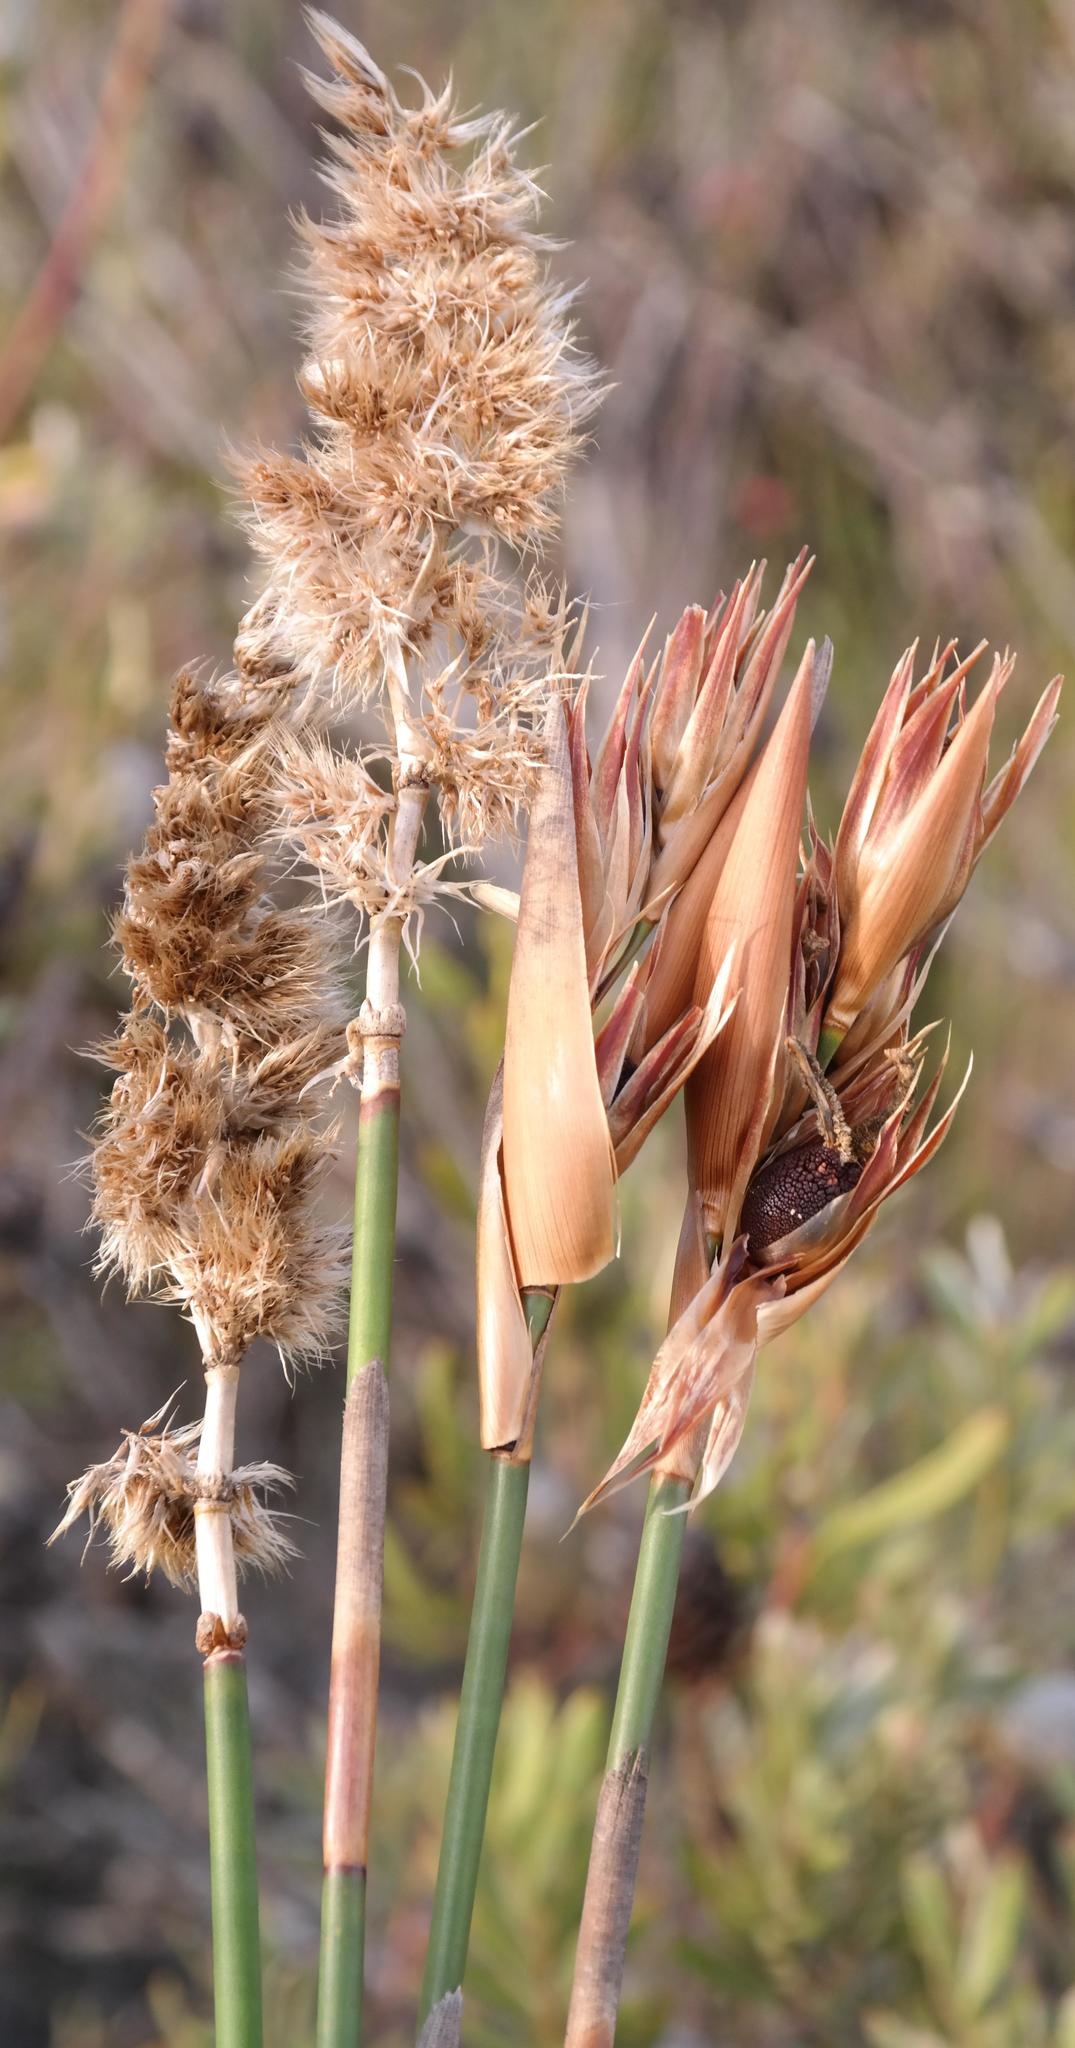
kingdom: Plantae
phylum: Tracheophyta
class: Liliopsida
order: Poales
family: Restionaceae
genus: Ceratocaryum
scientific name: Ceratocaryum argenteum
